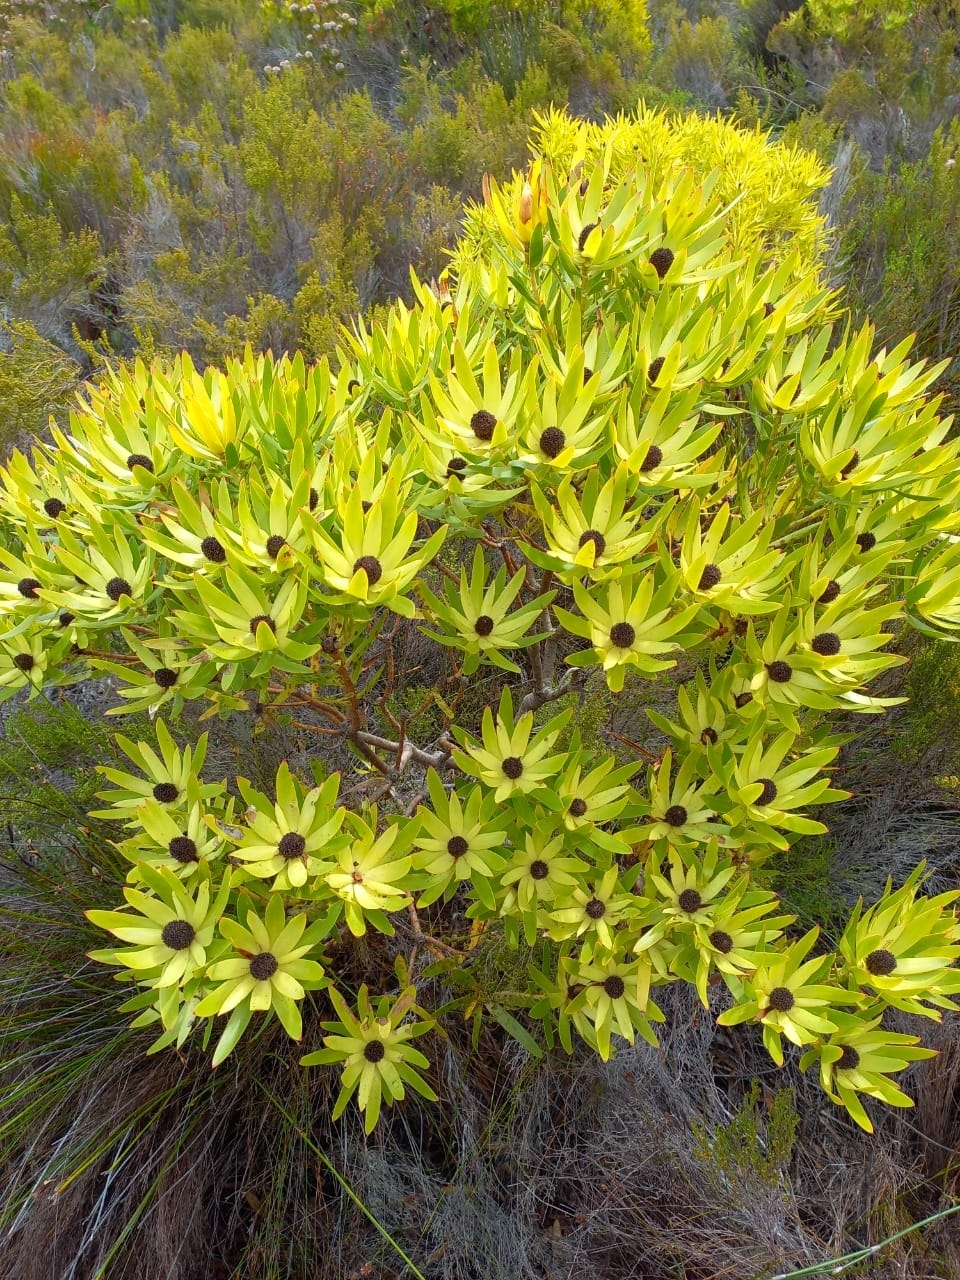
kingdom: Plantae
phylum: Tracheophyta
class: Magnoliopsida
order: Proteales
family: Proteaceae
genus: Leucadendron
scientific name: Leucadendron gandogeri
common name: Broad-leaf conebush
